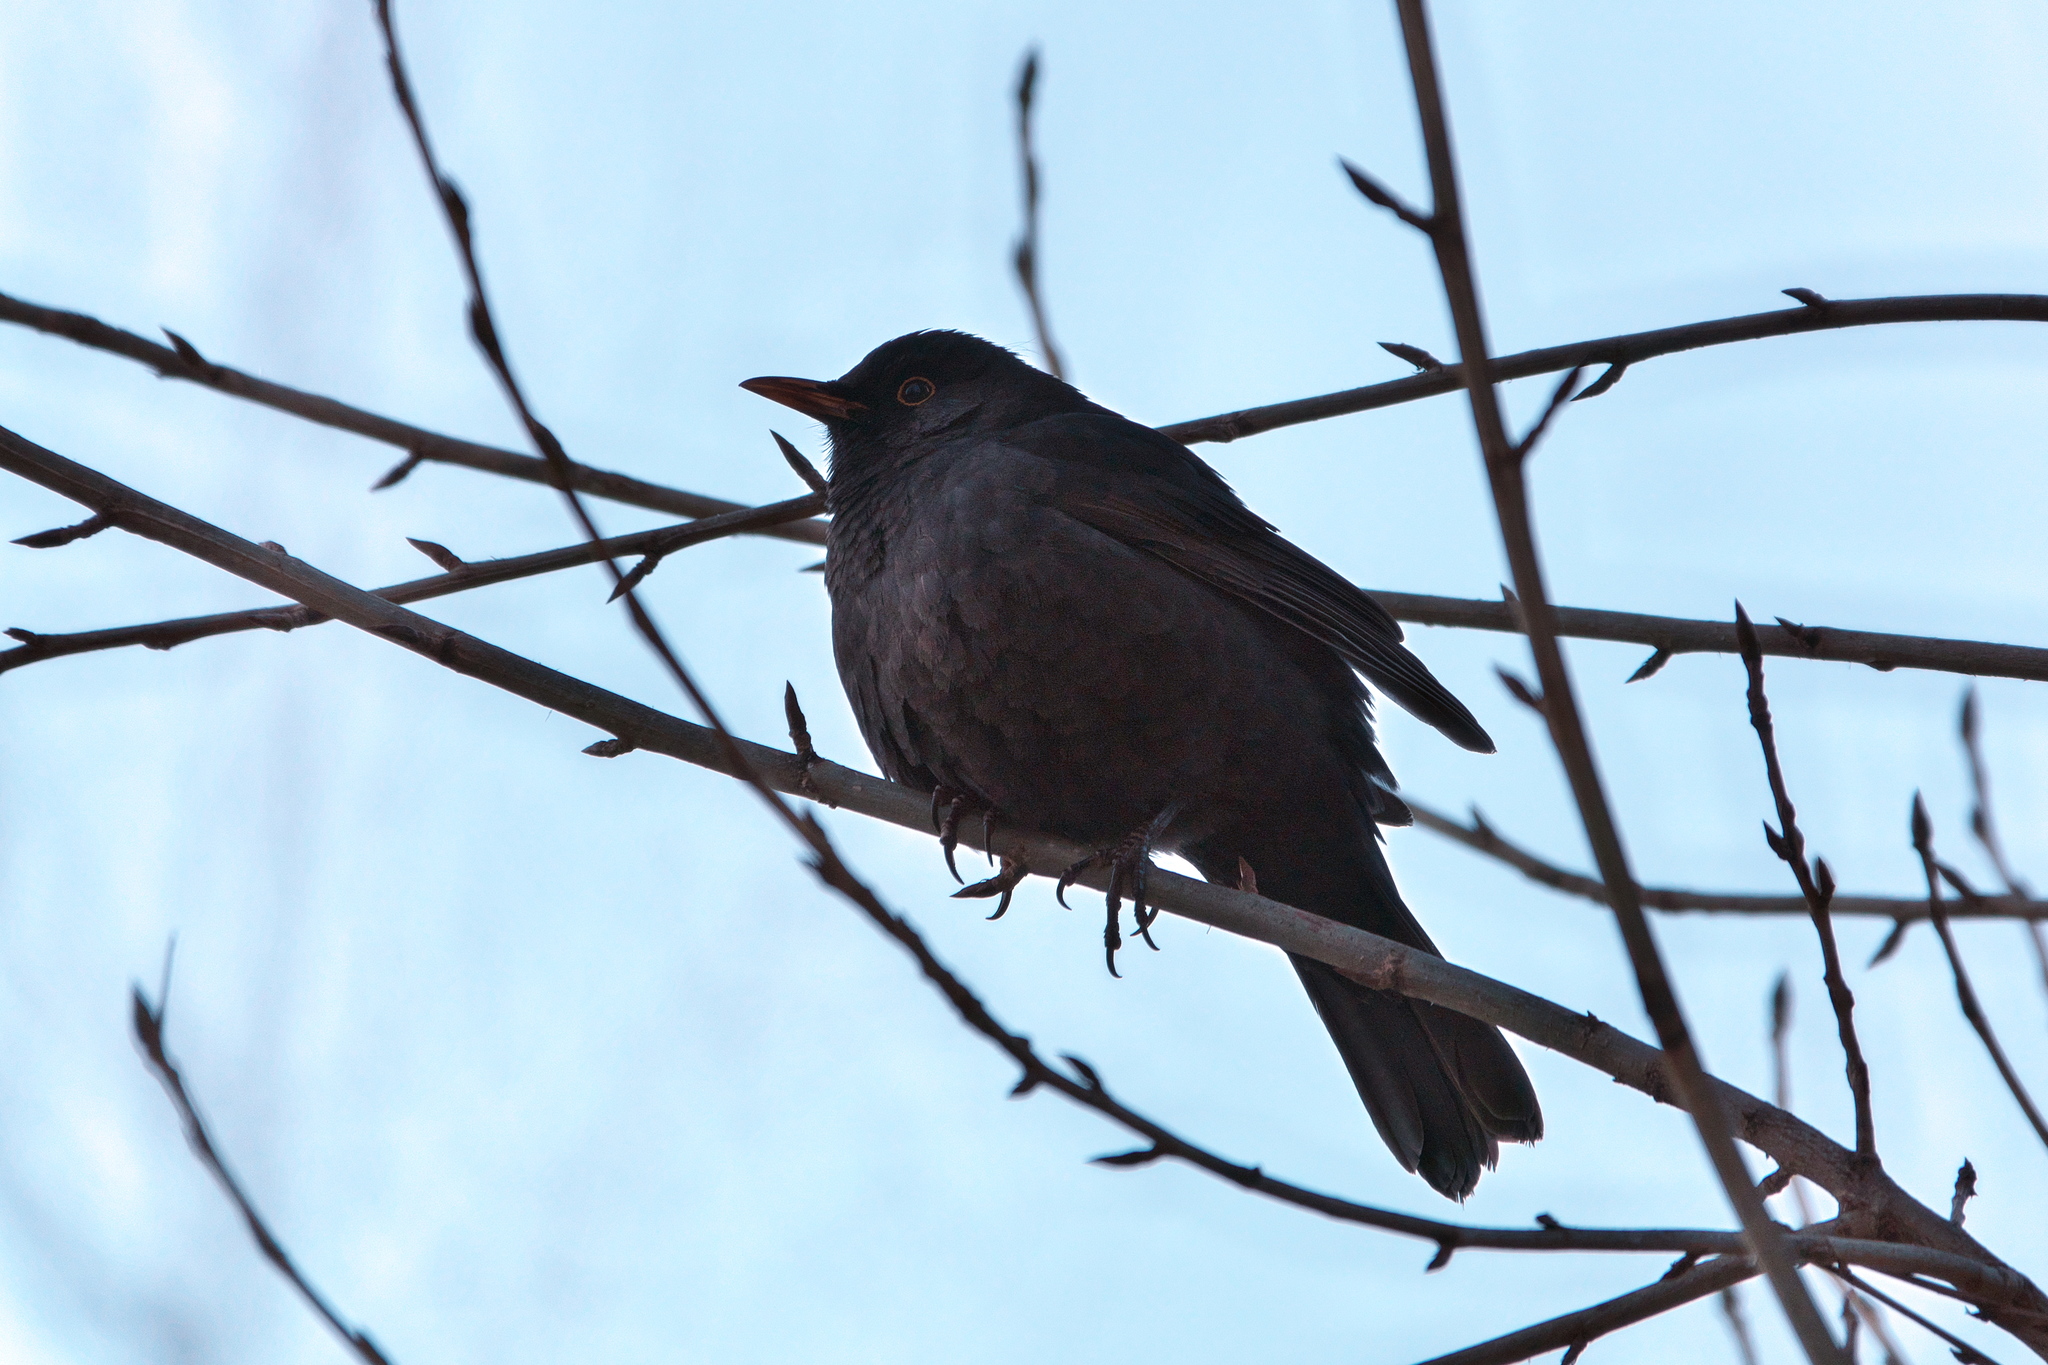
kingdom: Animalia
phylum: Chordata
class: Aves
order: Passeriformes
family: Turdidae
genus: Turdus
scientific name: Turdus merula
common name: Common blackbird
